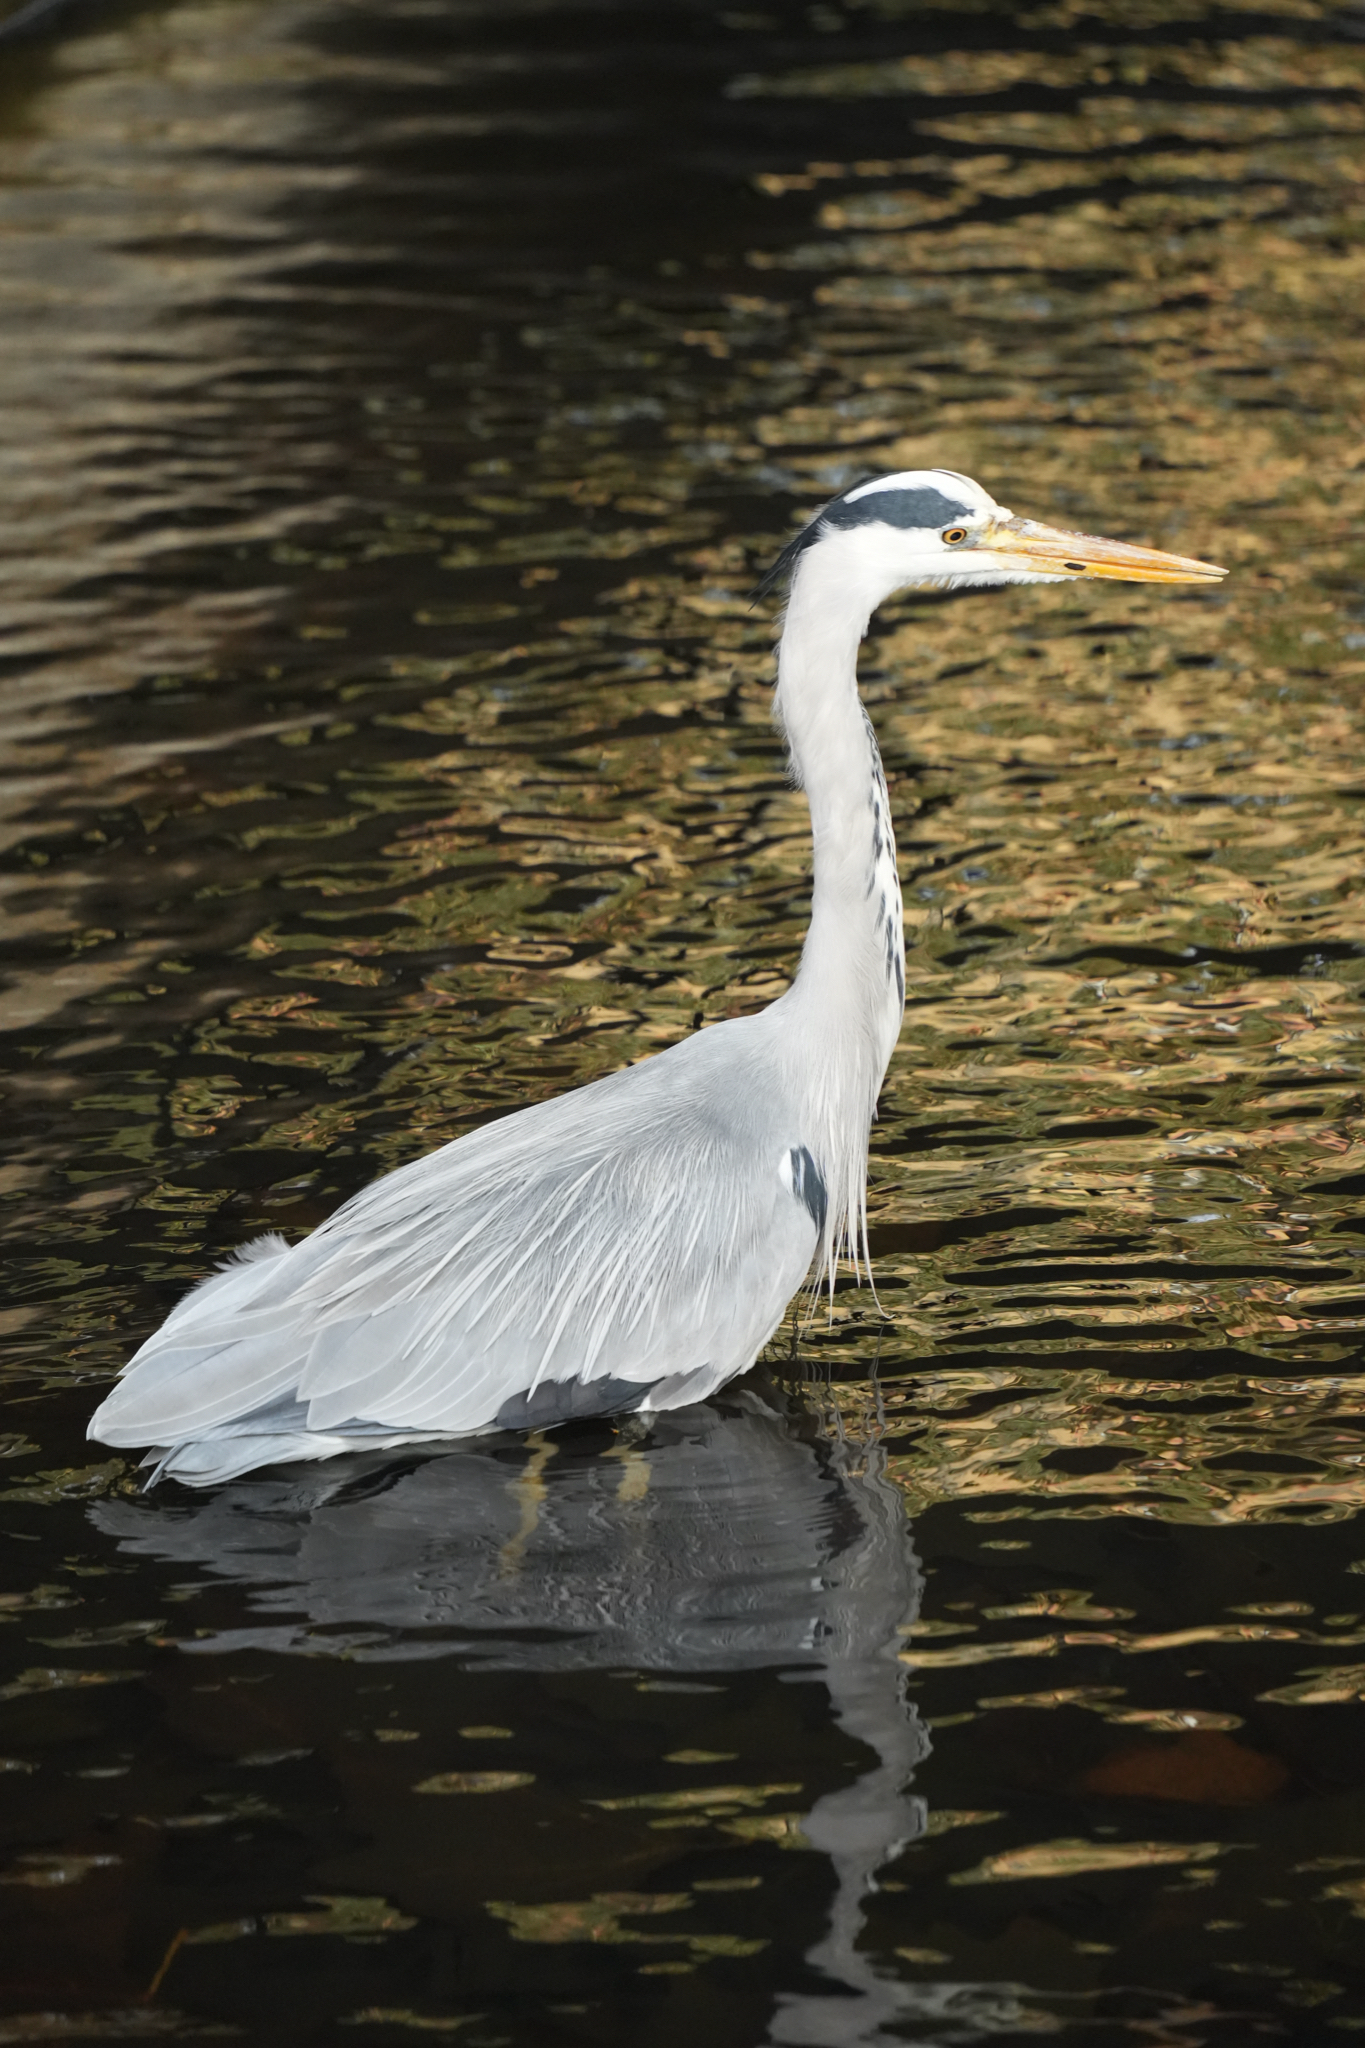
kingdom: Animalia
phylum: Chordata
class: Aves
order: Pelecaniformes
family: Ardeidae
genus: Ardea
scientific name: Ardea cinerea
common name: Grey heron
